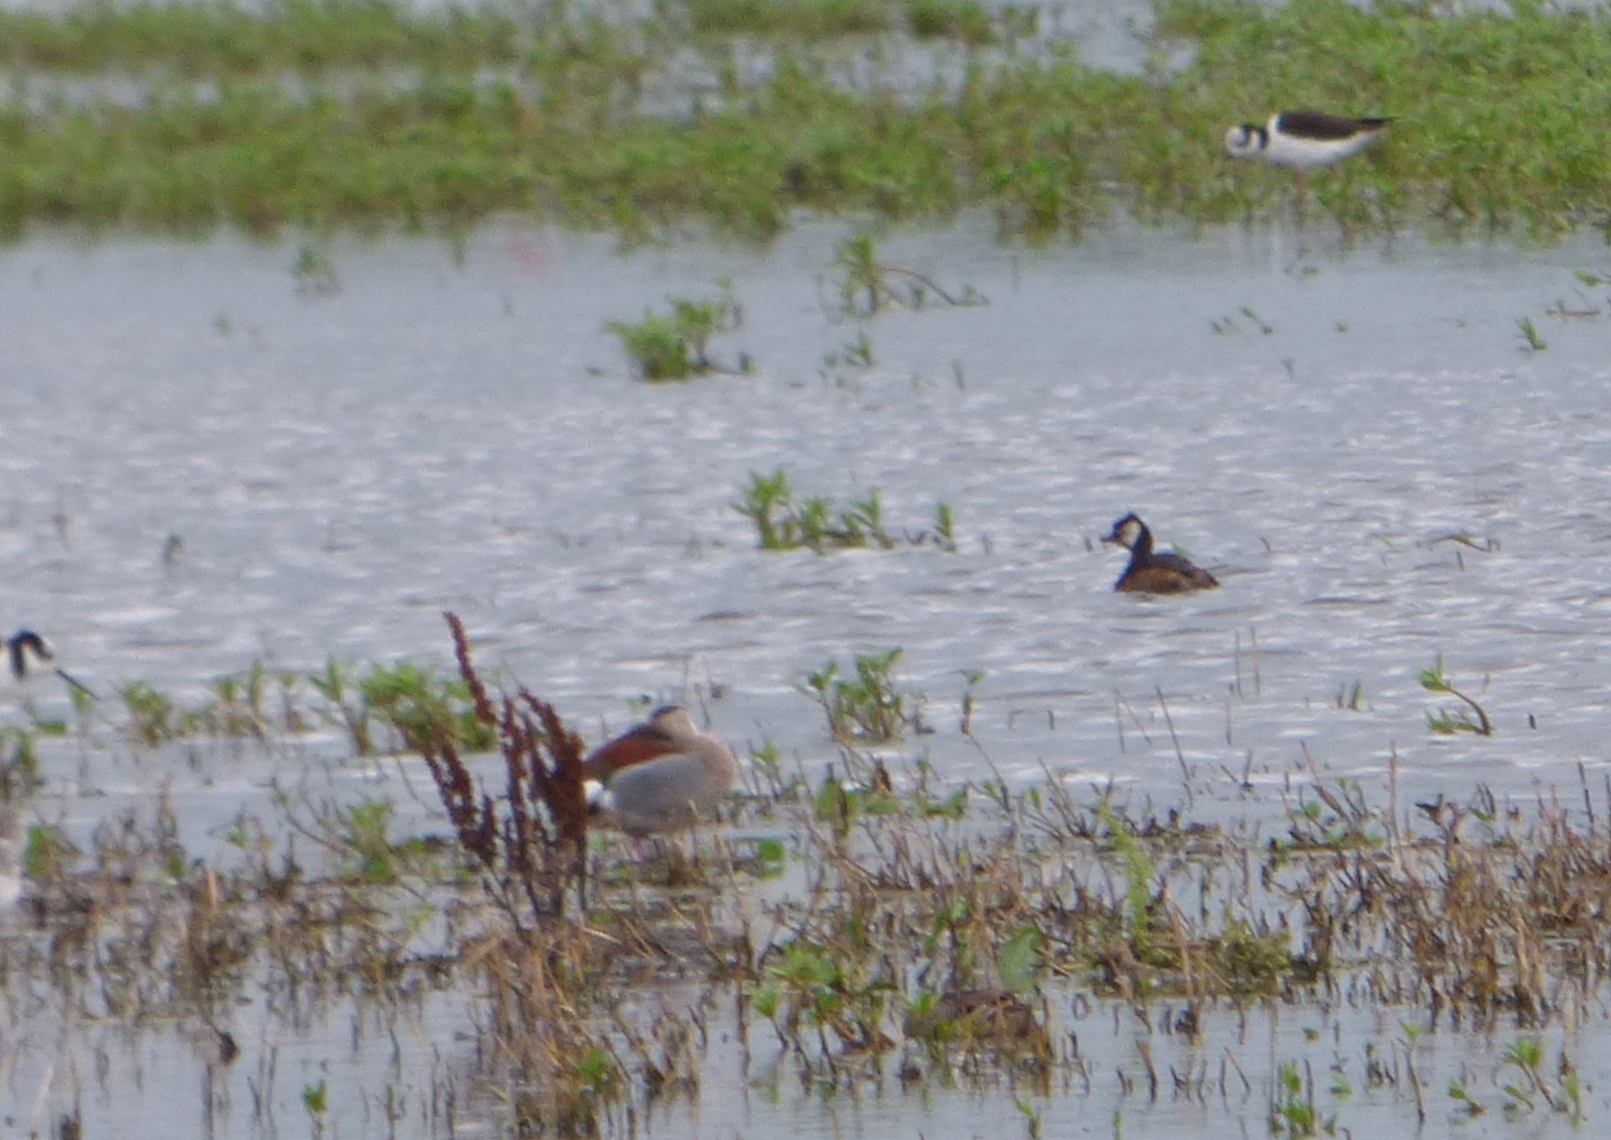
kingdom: Animalia
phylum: Chordata
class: Aves
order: Podicipediformes
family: Podicipedidae
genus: Rollandia
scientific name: Rollandia rolland
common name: White-tufted grebe
